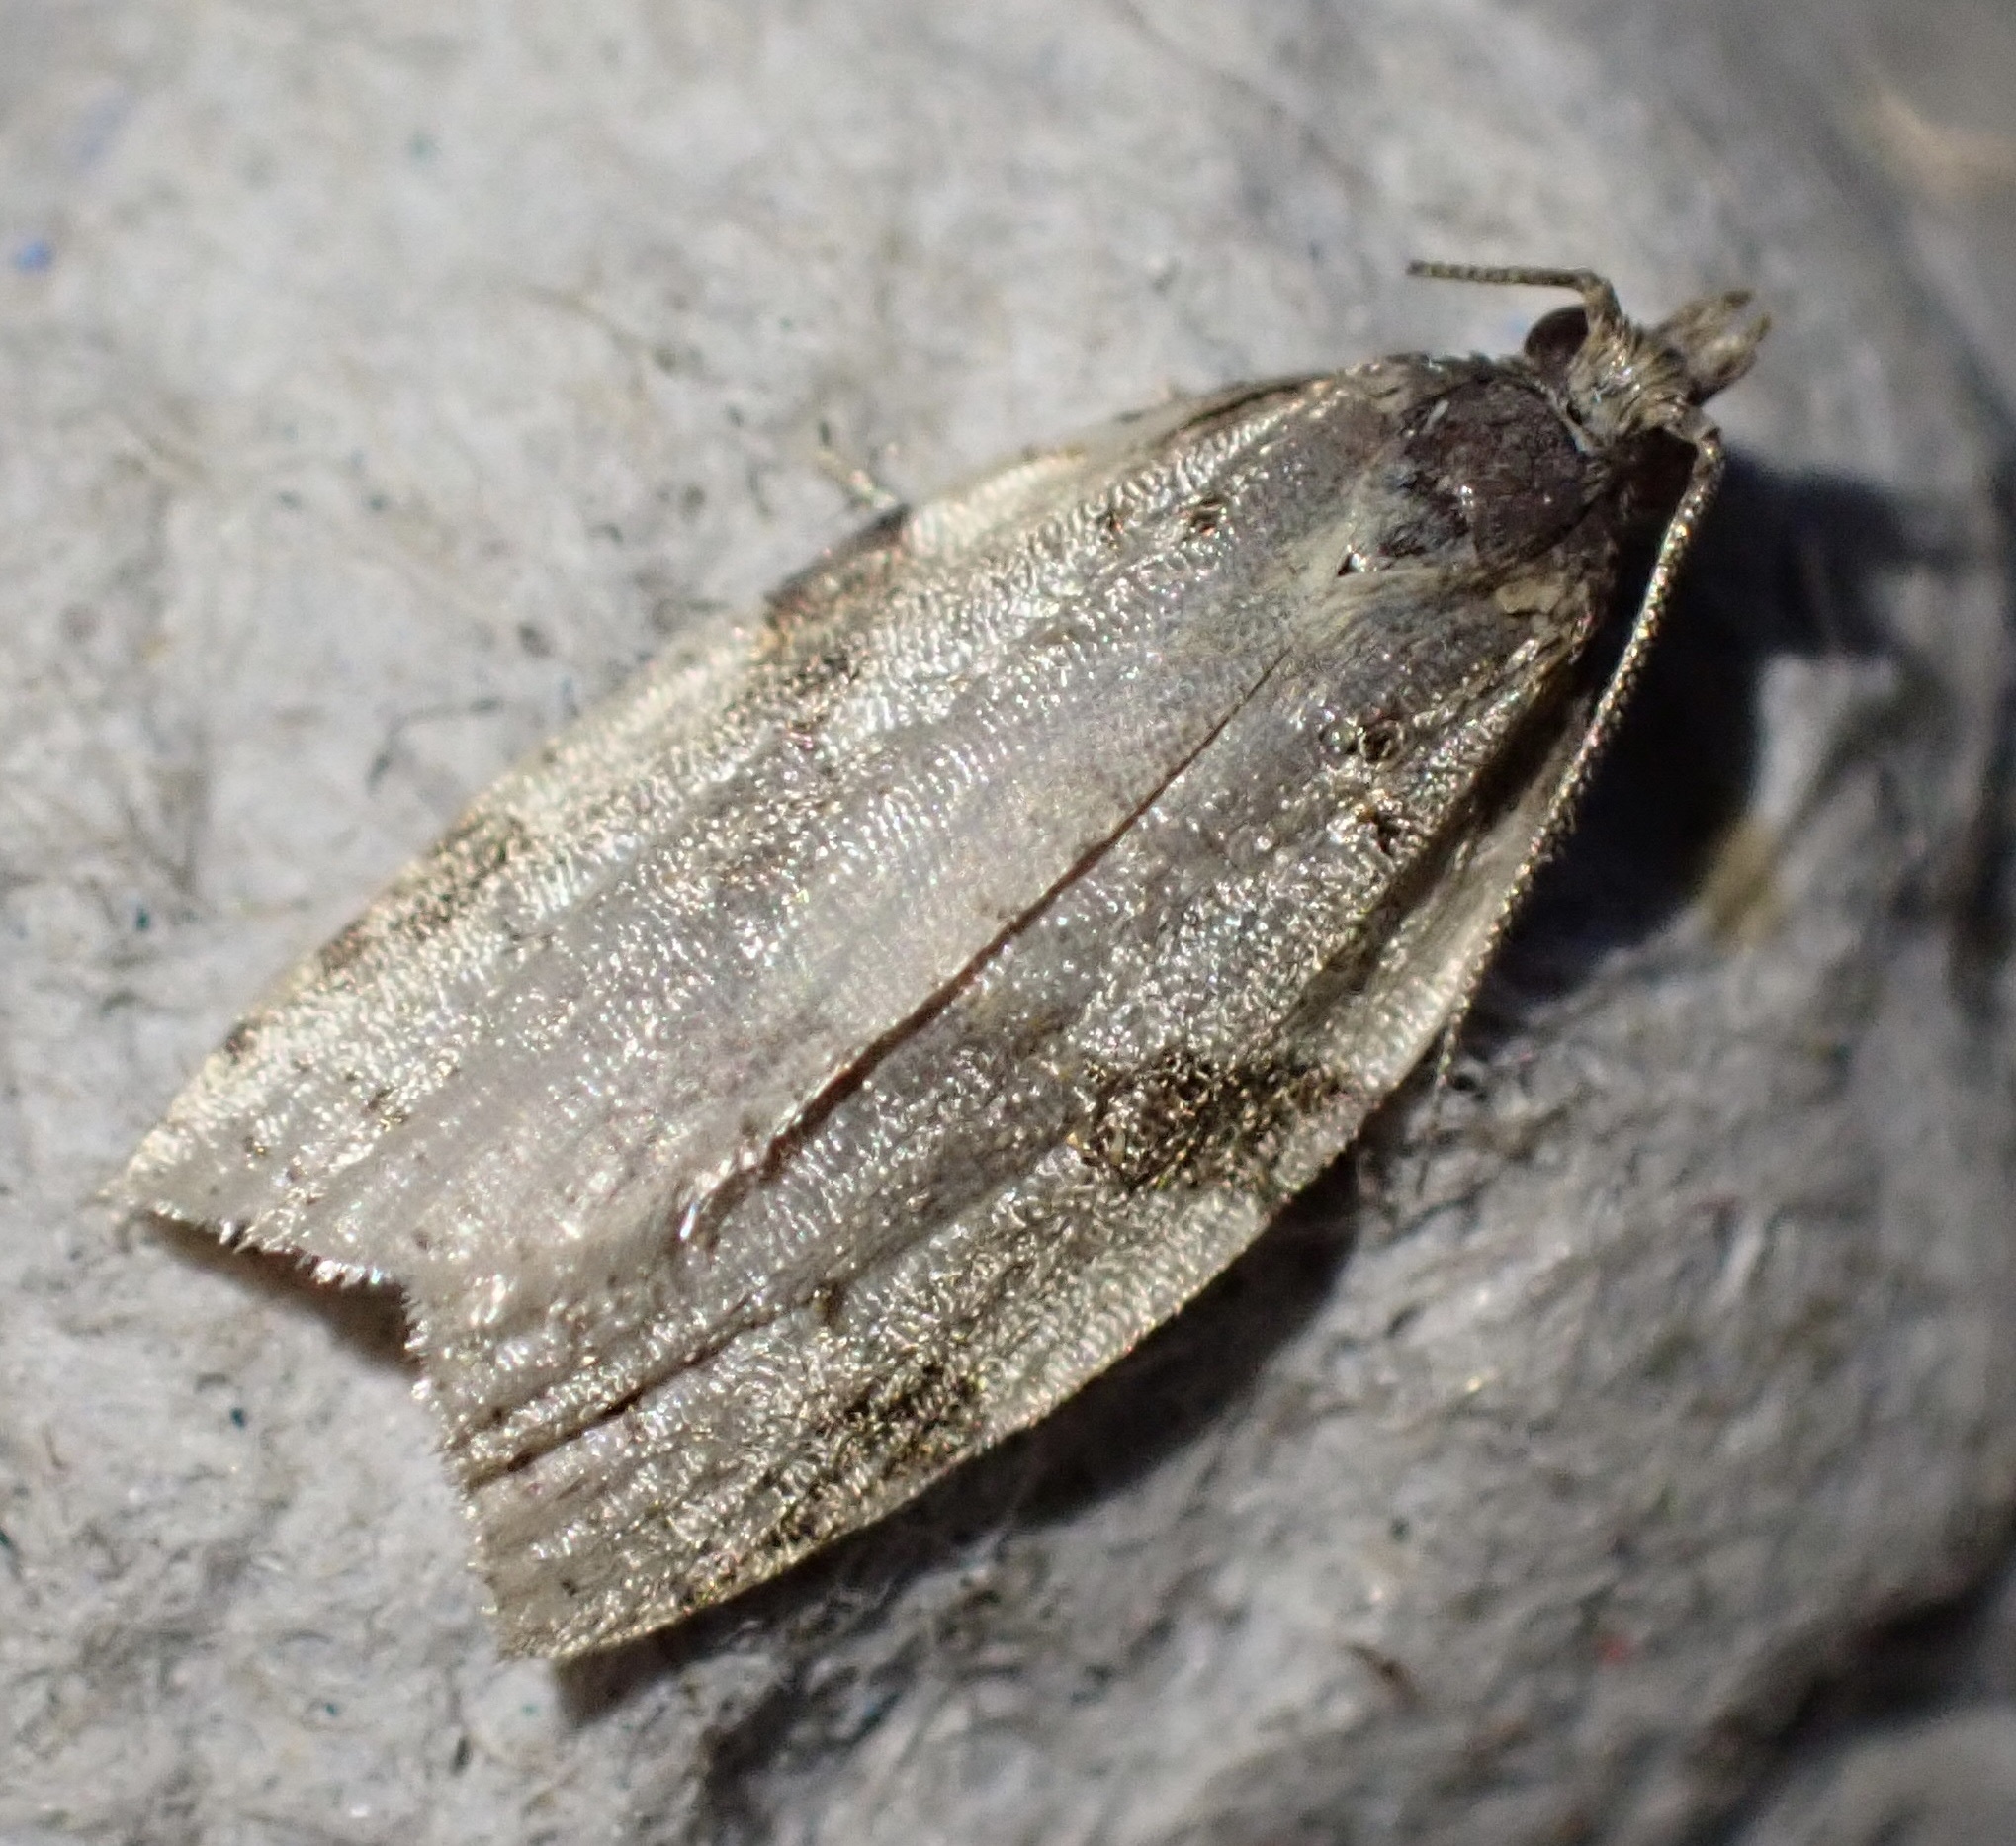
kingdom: Animalia
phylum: Arthropoda
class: Insecta
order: Lepidoptera
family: Tortricidae
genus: Clepsis
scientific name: Clepsis spectrana
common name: Cyclamen tortrix
